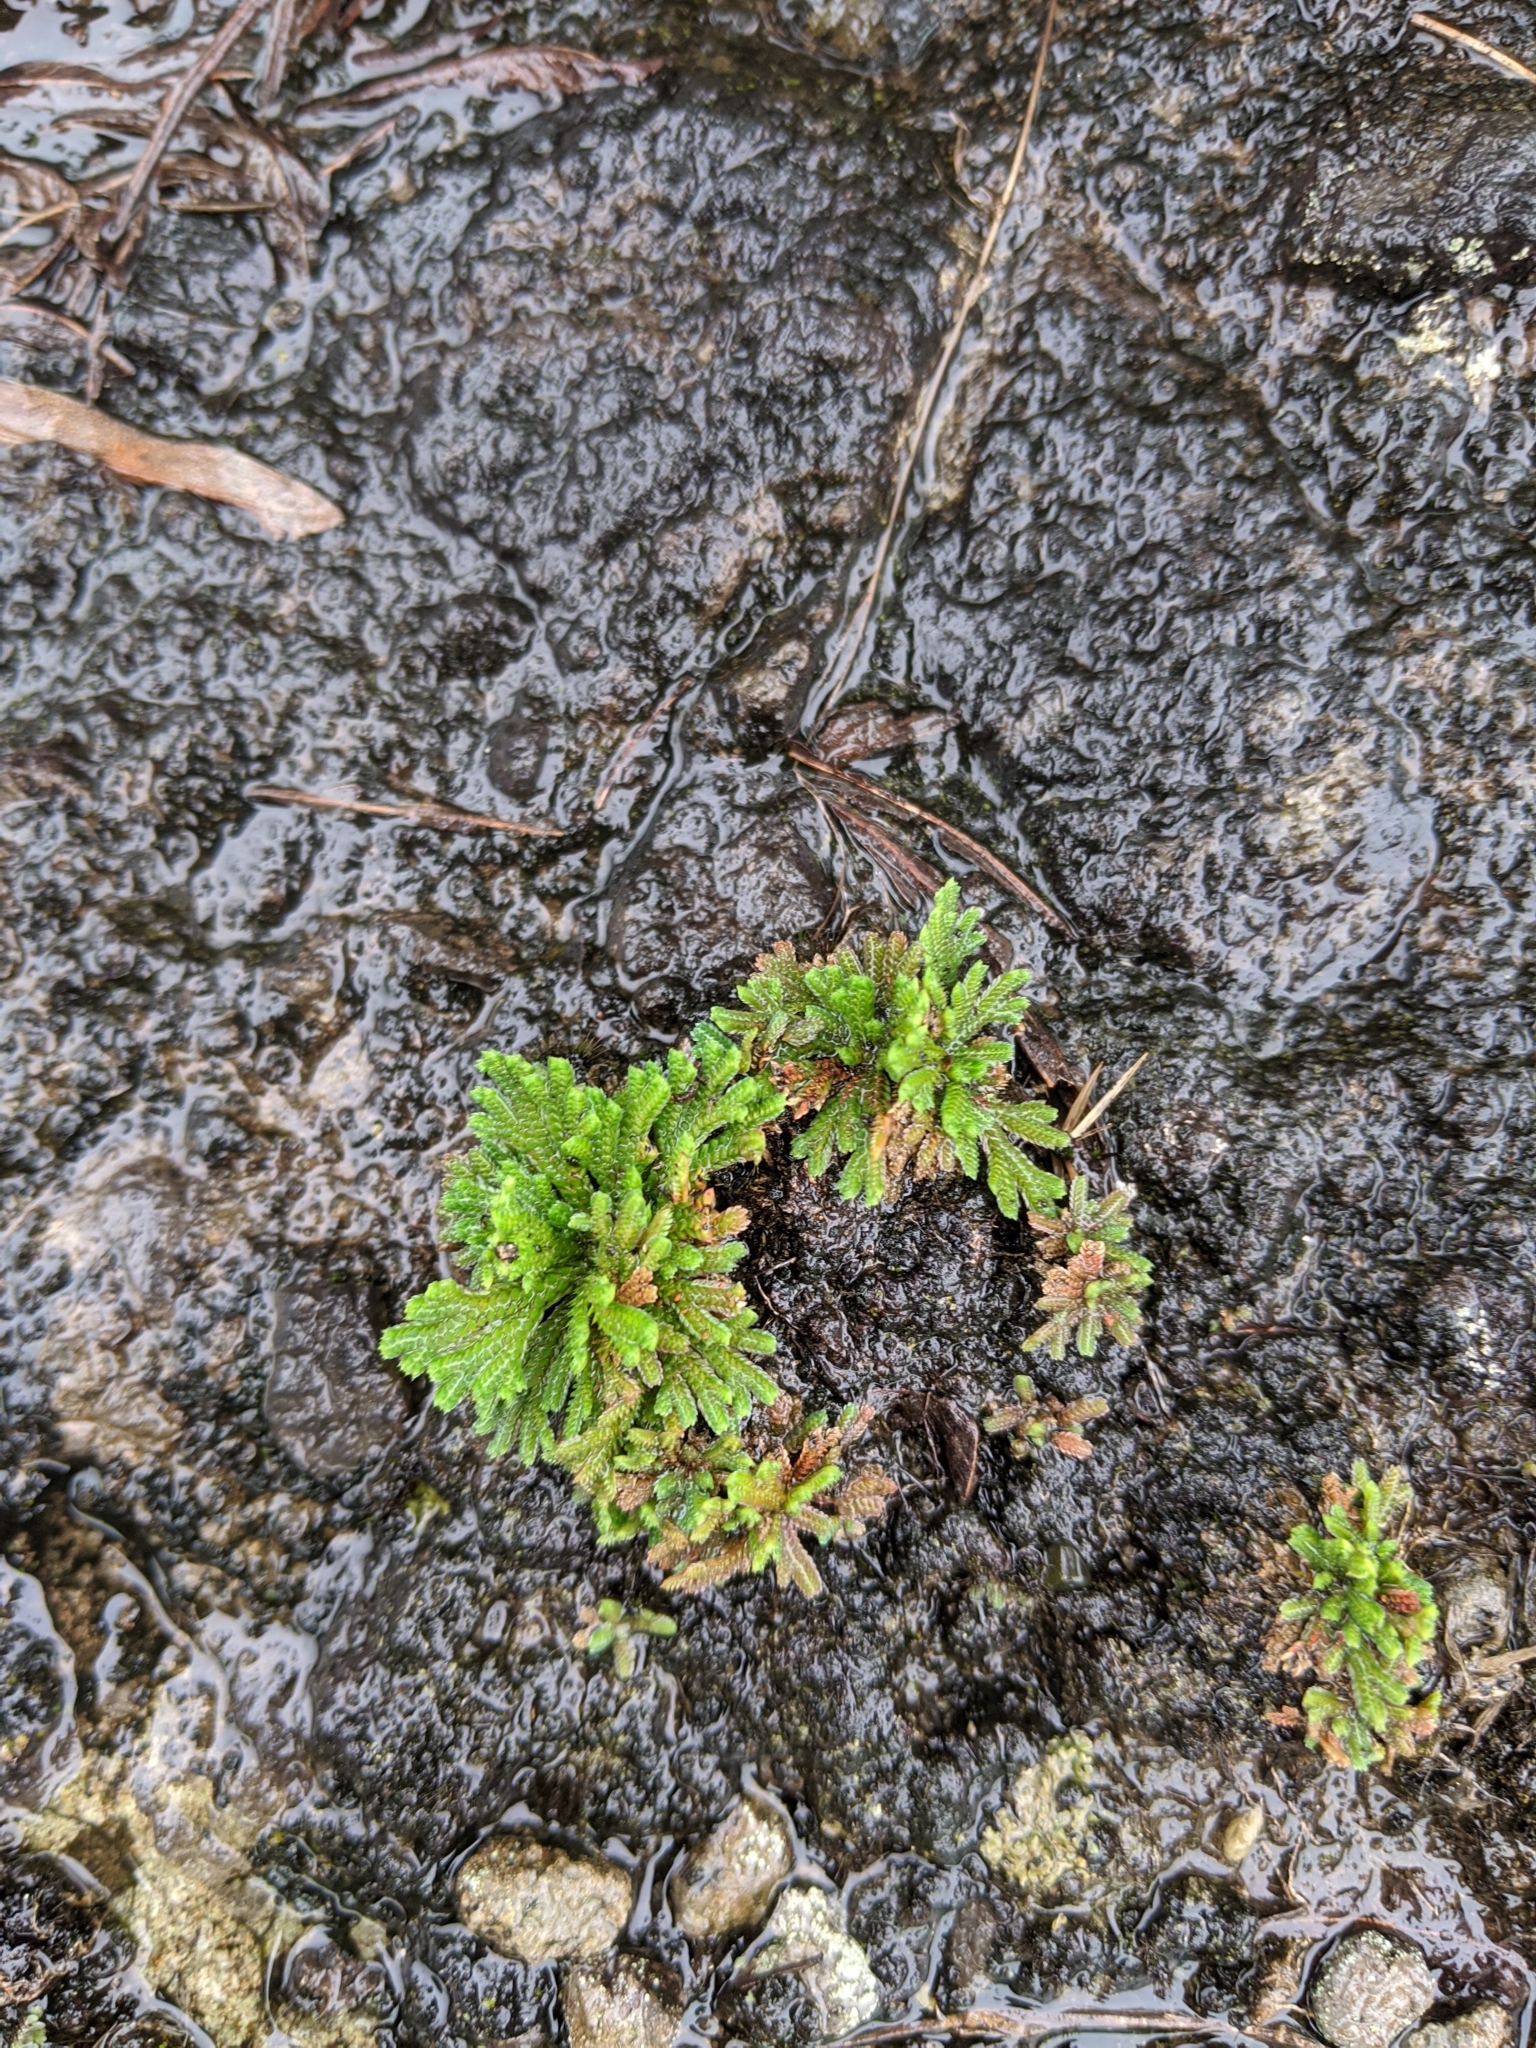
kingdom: Plantae
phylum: Tracheophyta
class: Lycopodiopsida
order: Selaginellales
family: Selaginellaceae
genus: Selaginella
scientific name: Selaginella tamariscina
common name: Little-club-moss
